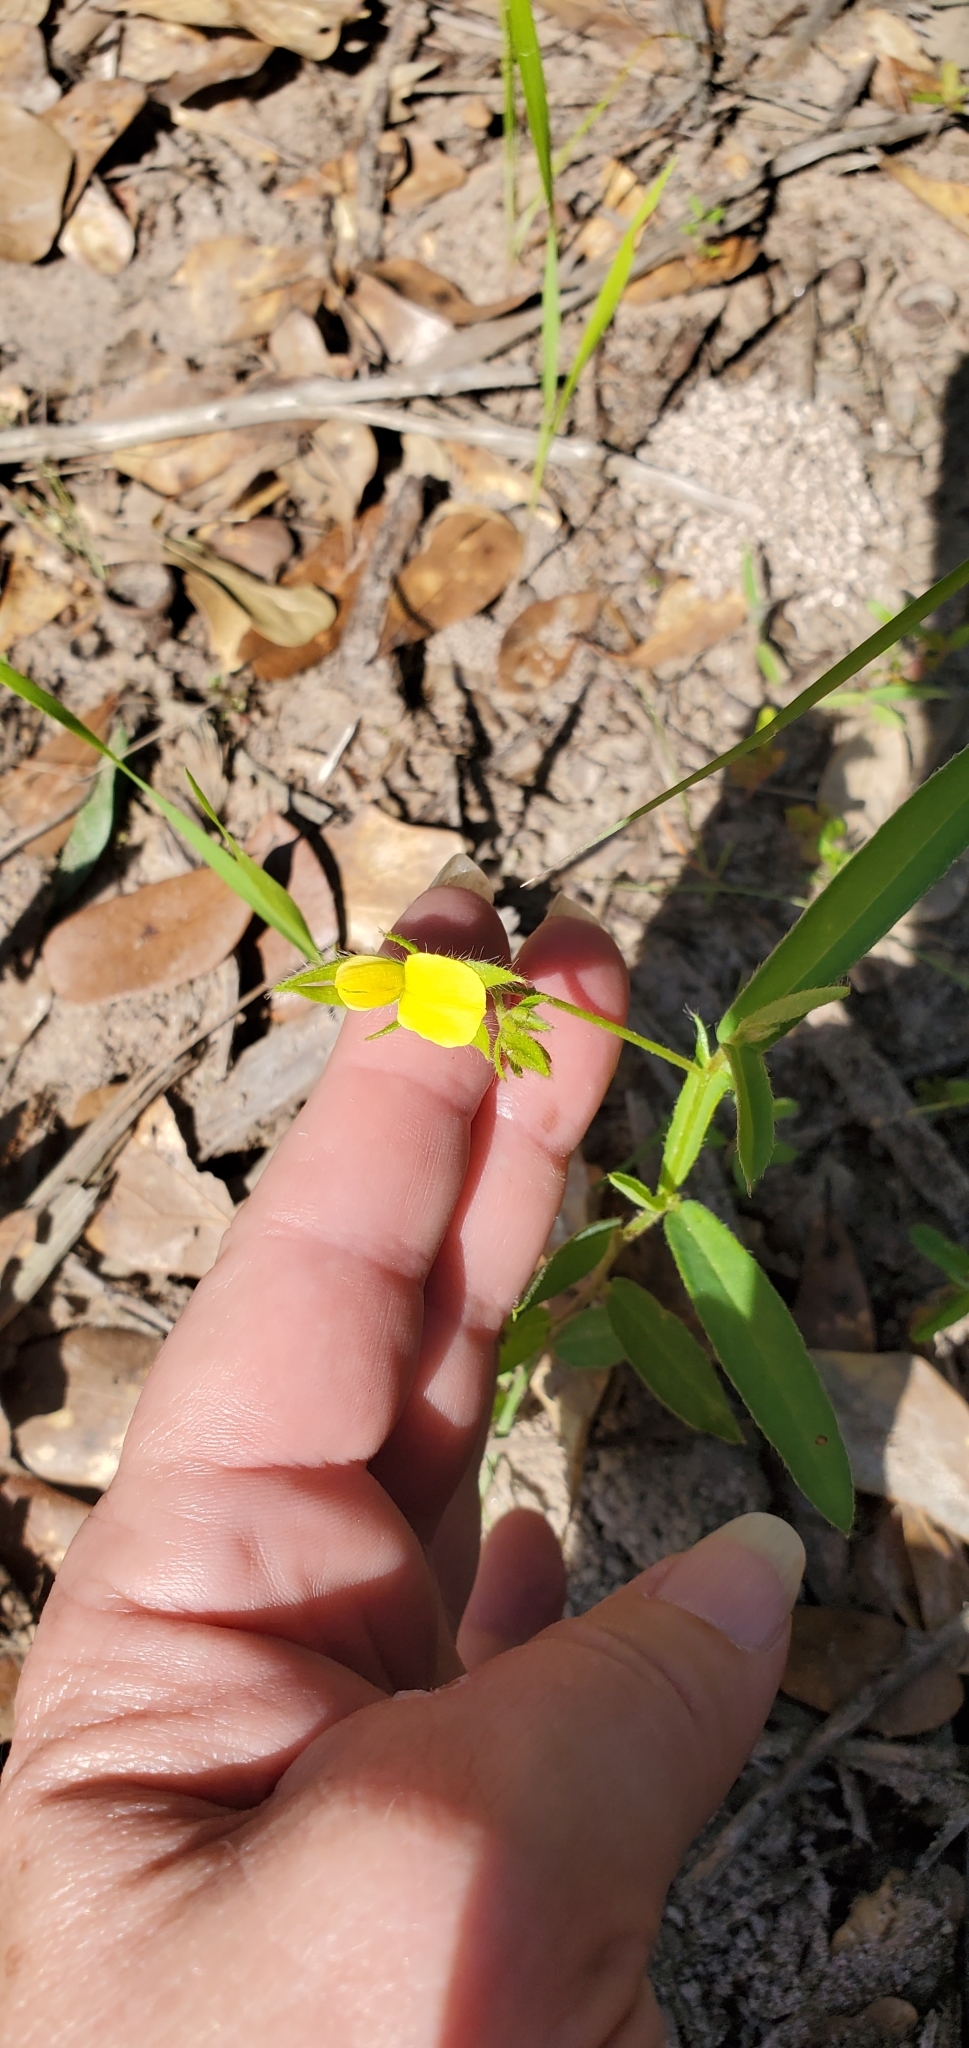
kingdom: Plantae
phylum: Tracheophyta
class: Magnoliopsida
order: Fabales
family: Fabaceae
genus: Crotalaria
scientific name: Crotalaria sagittalis
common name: Arrowhead rattlebox
